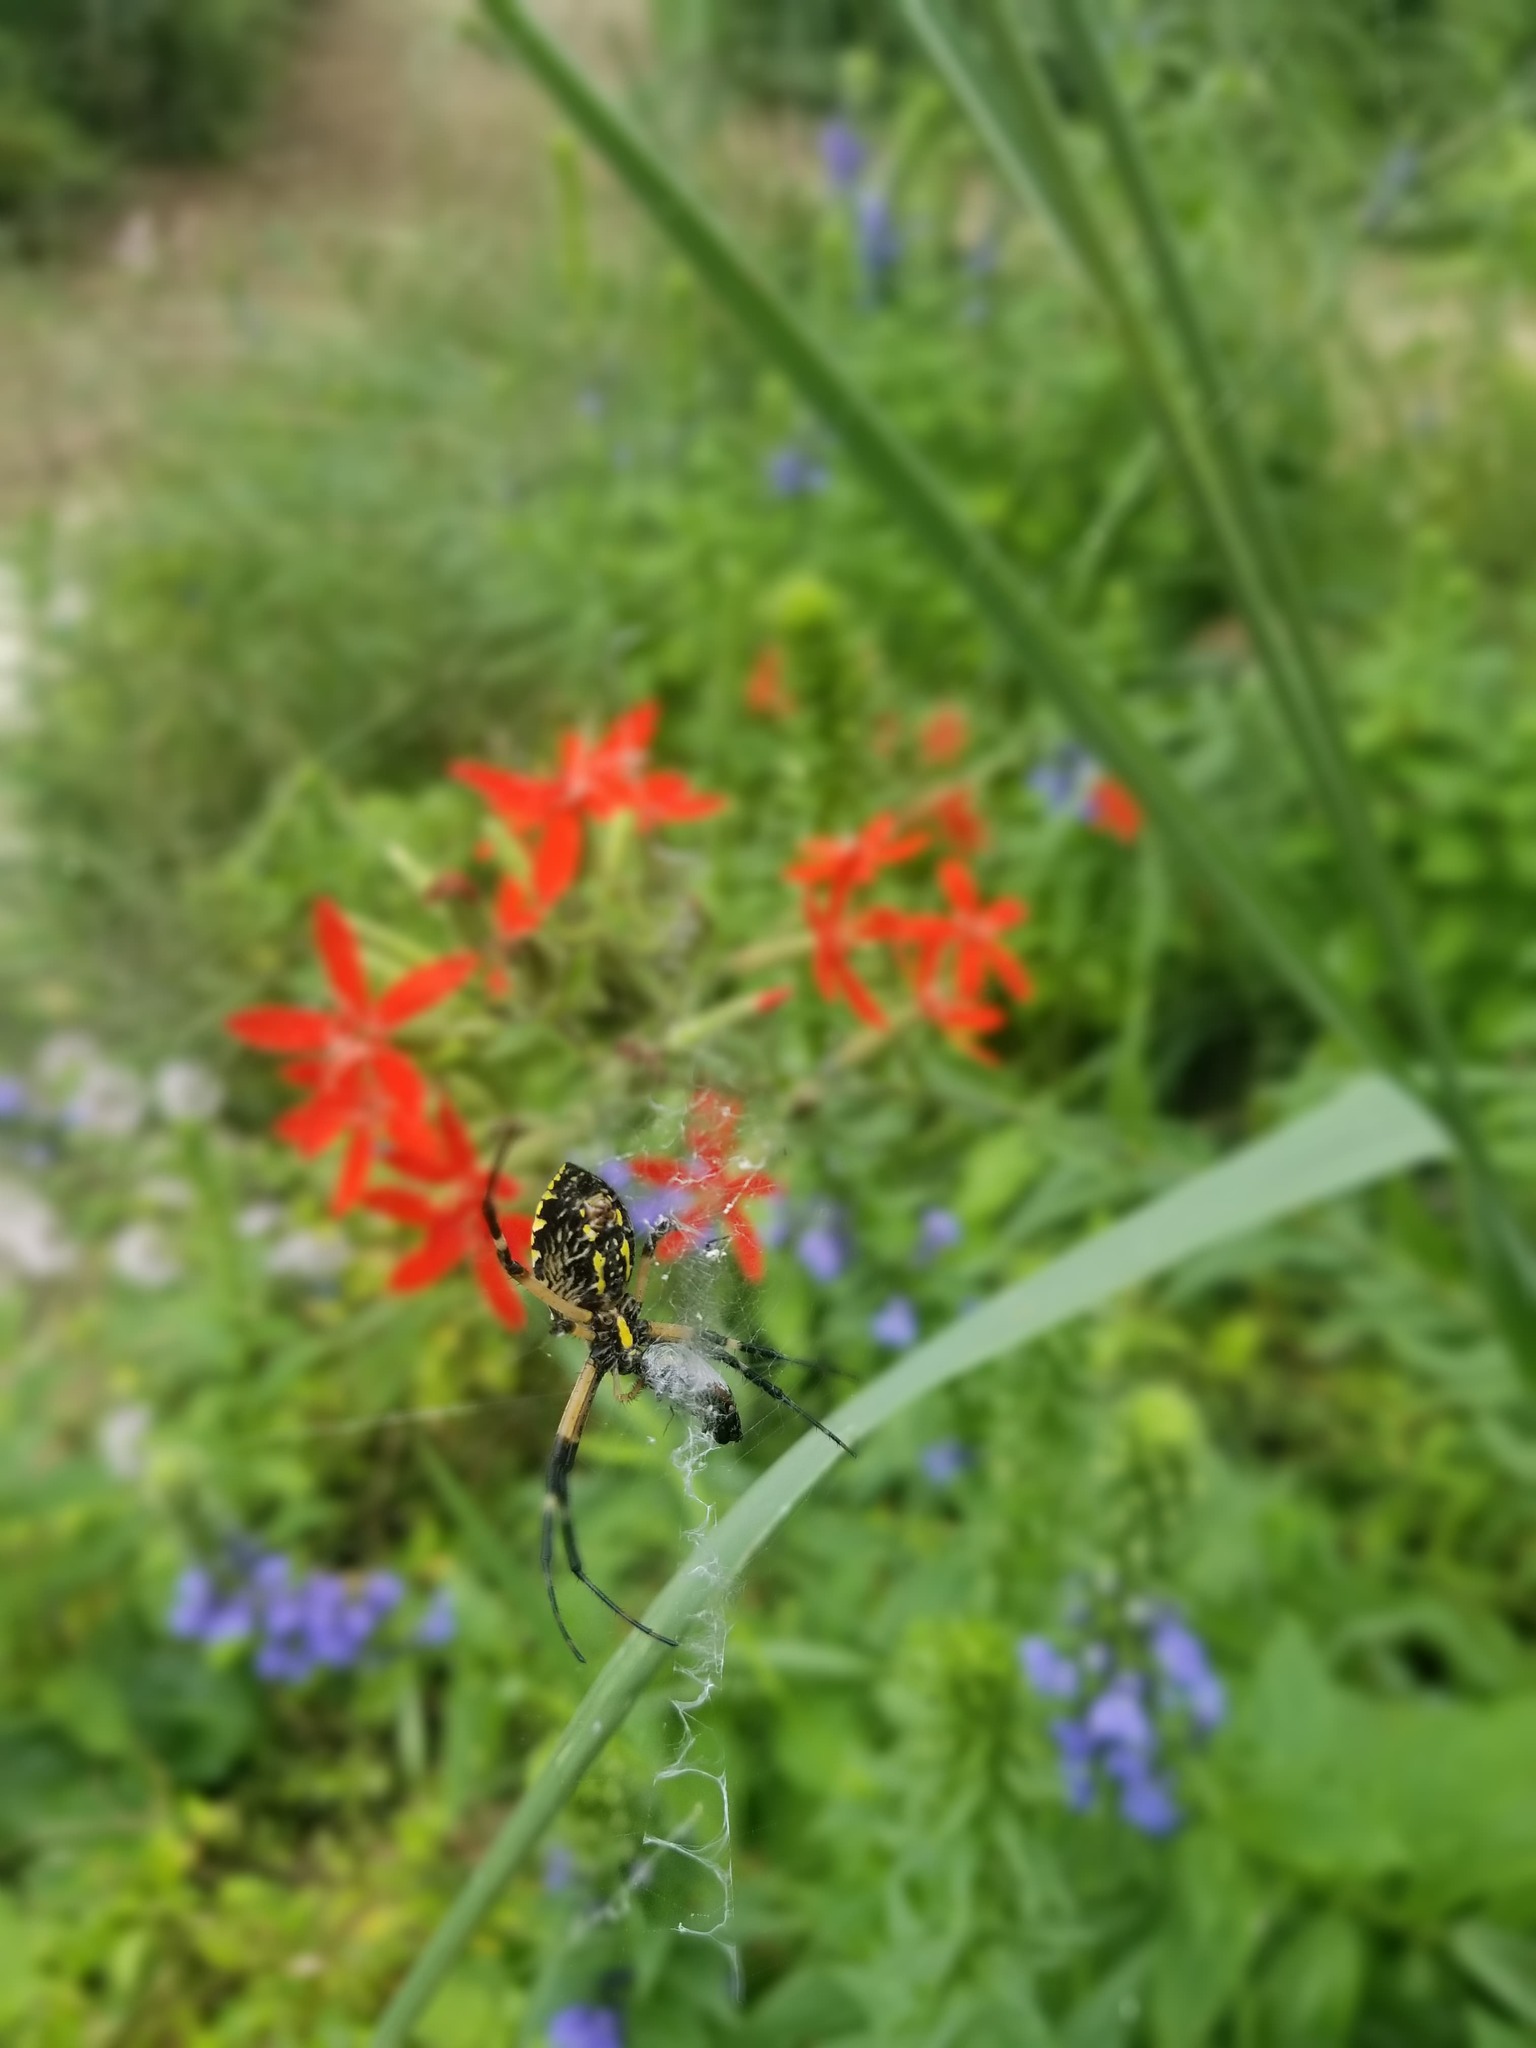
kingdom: Animalia
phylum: Arthropoda
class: Arachnida
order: Araneae
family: Araneidae
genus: Argiope
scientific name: Argiope aurantia
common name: Orb weavers
